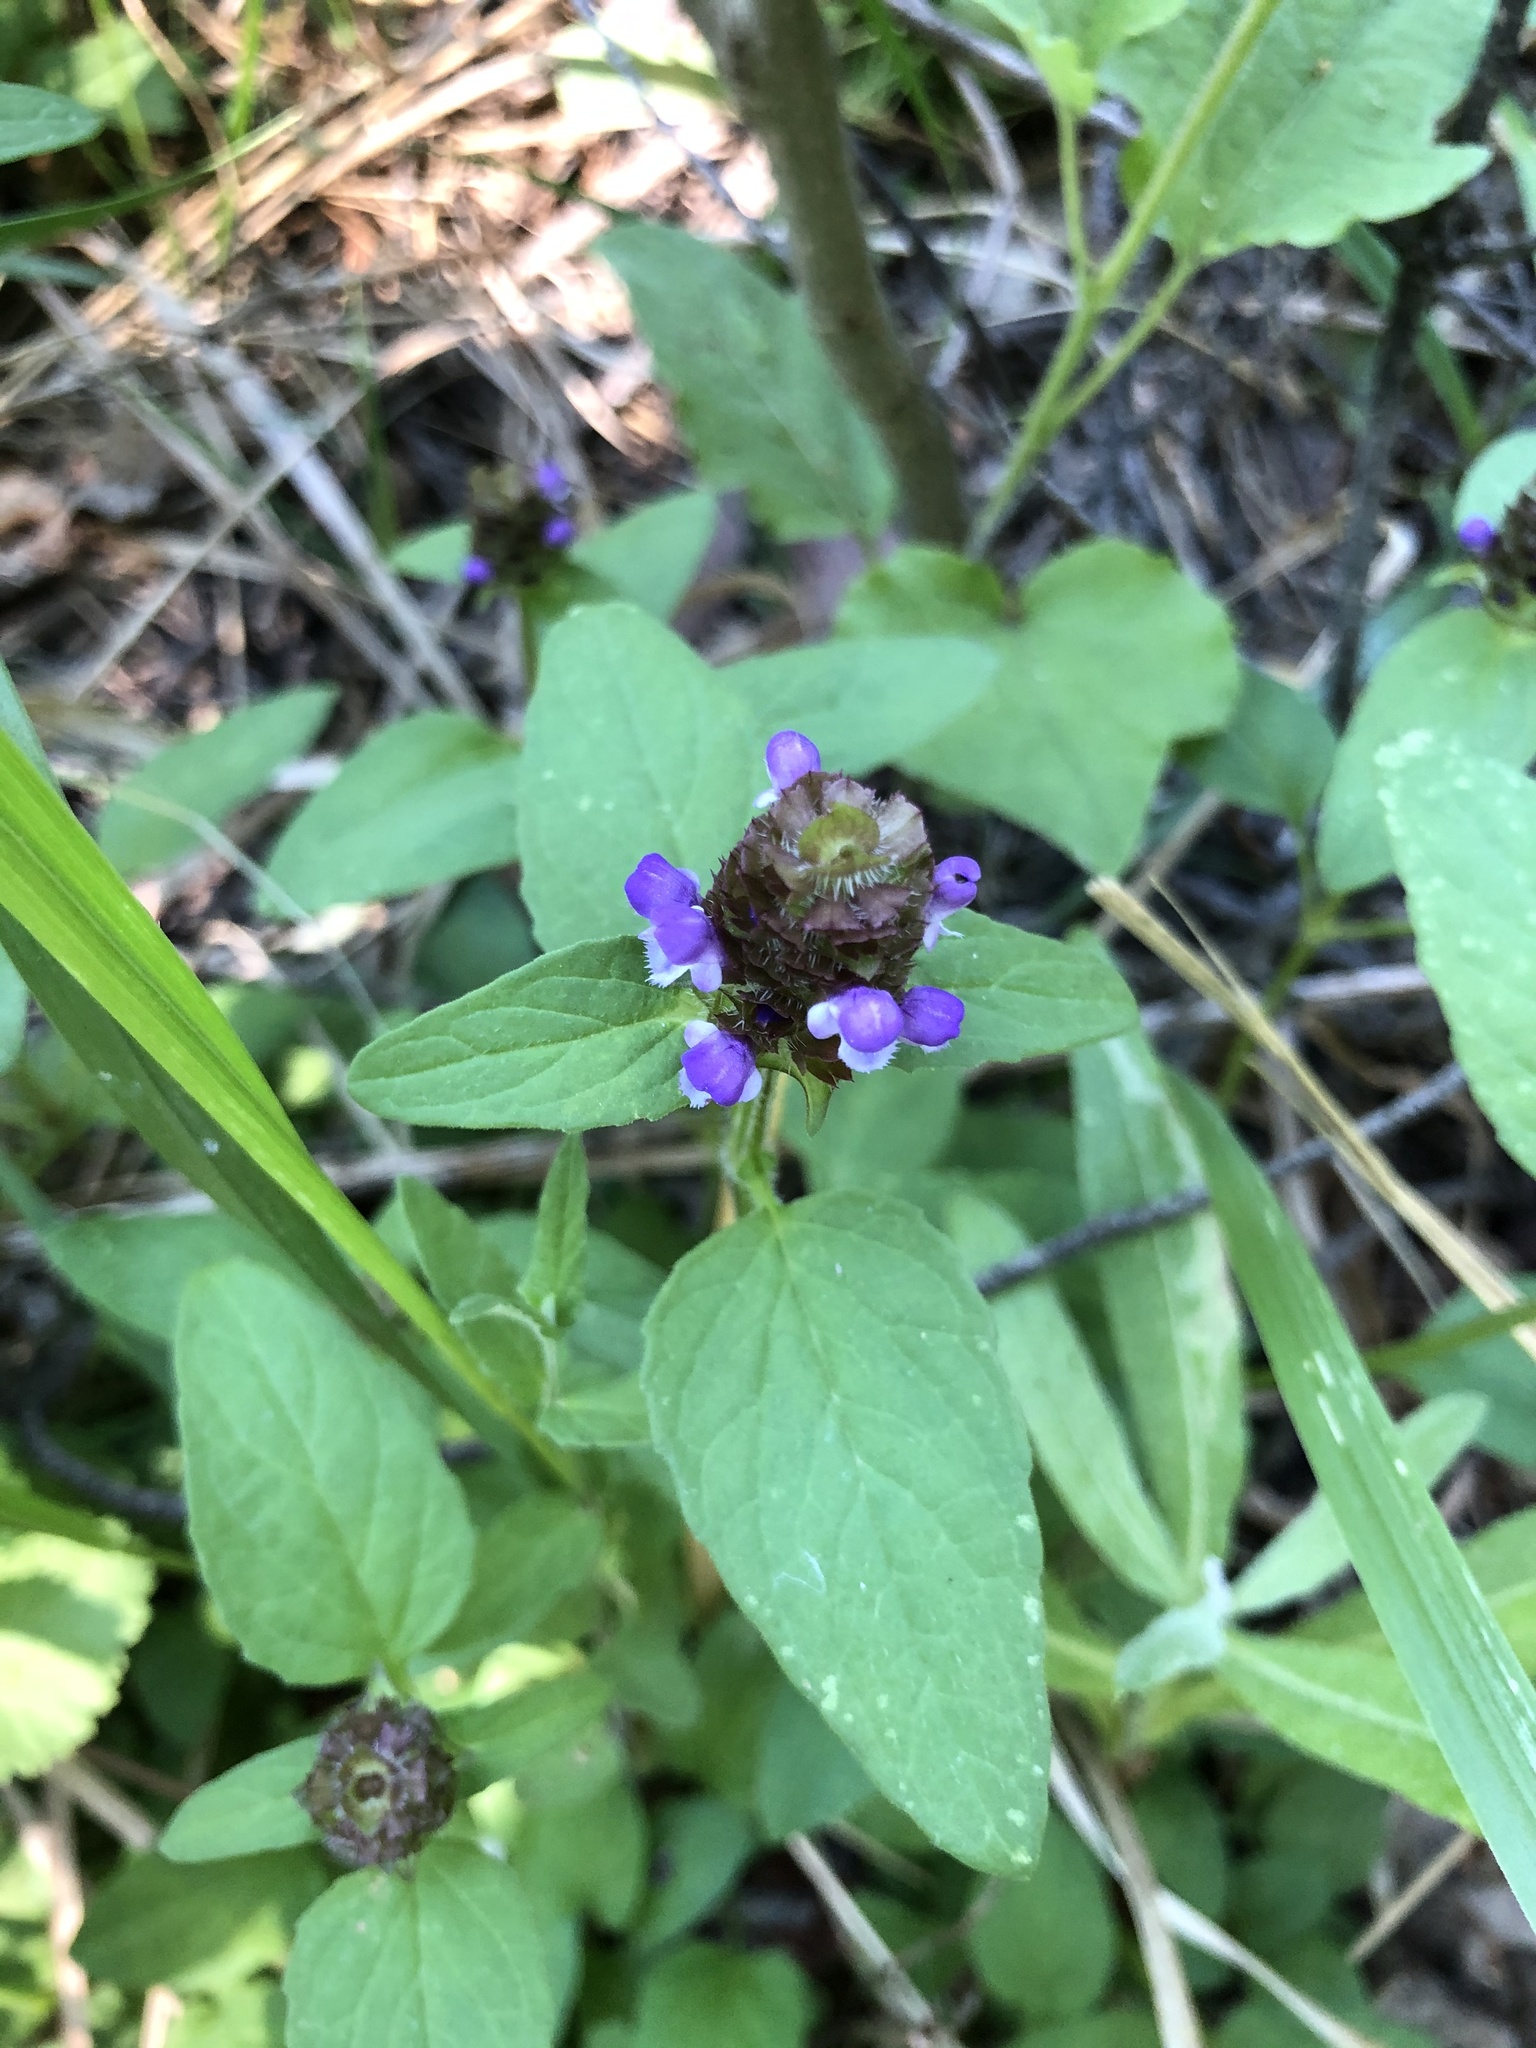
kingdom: Plantae
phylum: Tracheophyta
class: Magnoliopsida
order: Lamiales
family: Lamiaceae
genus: Prunella
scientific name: Prunella vulgaris
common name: Heal-all
